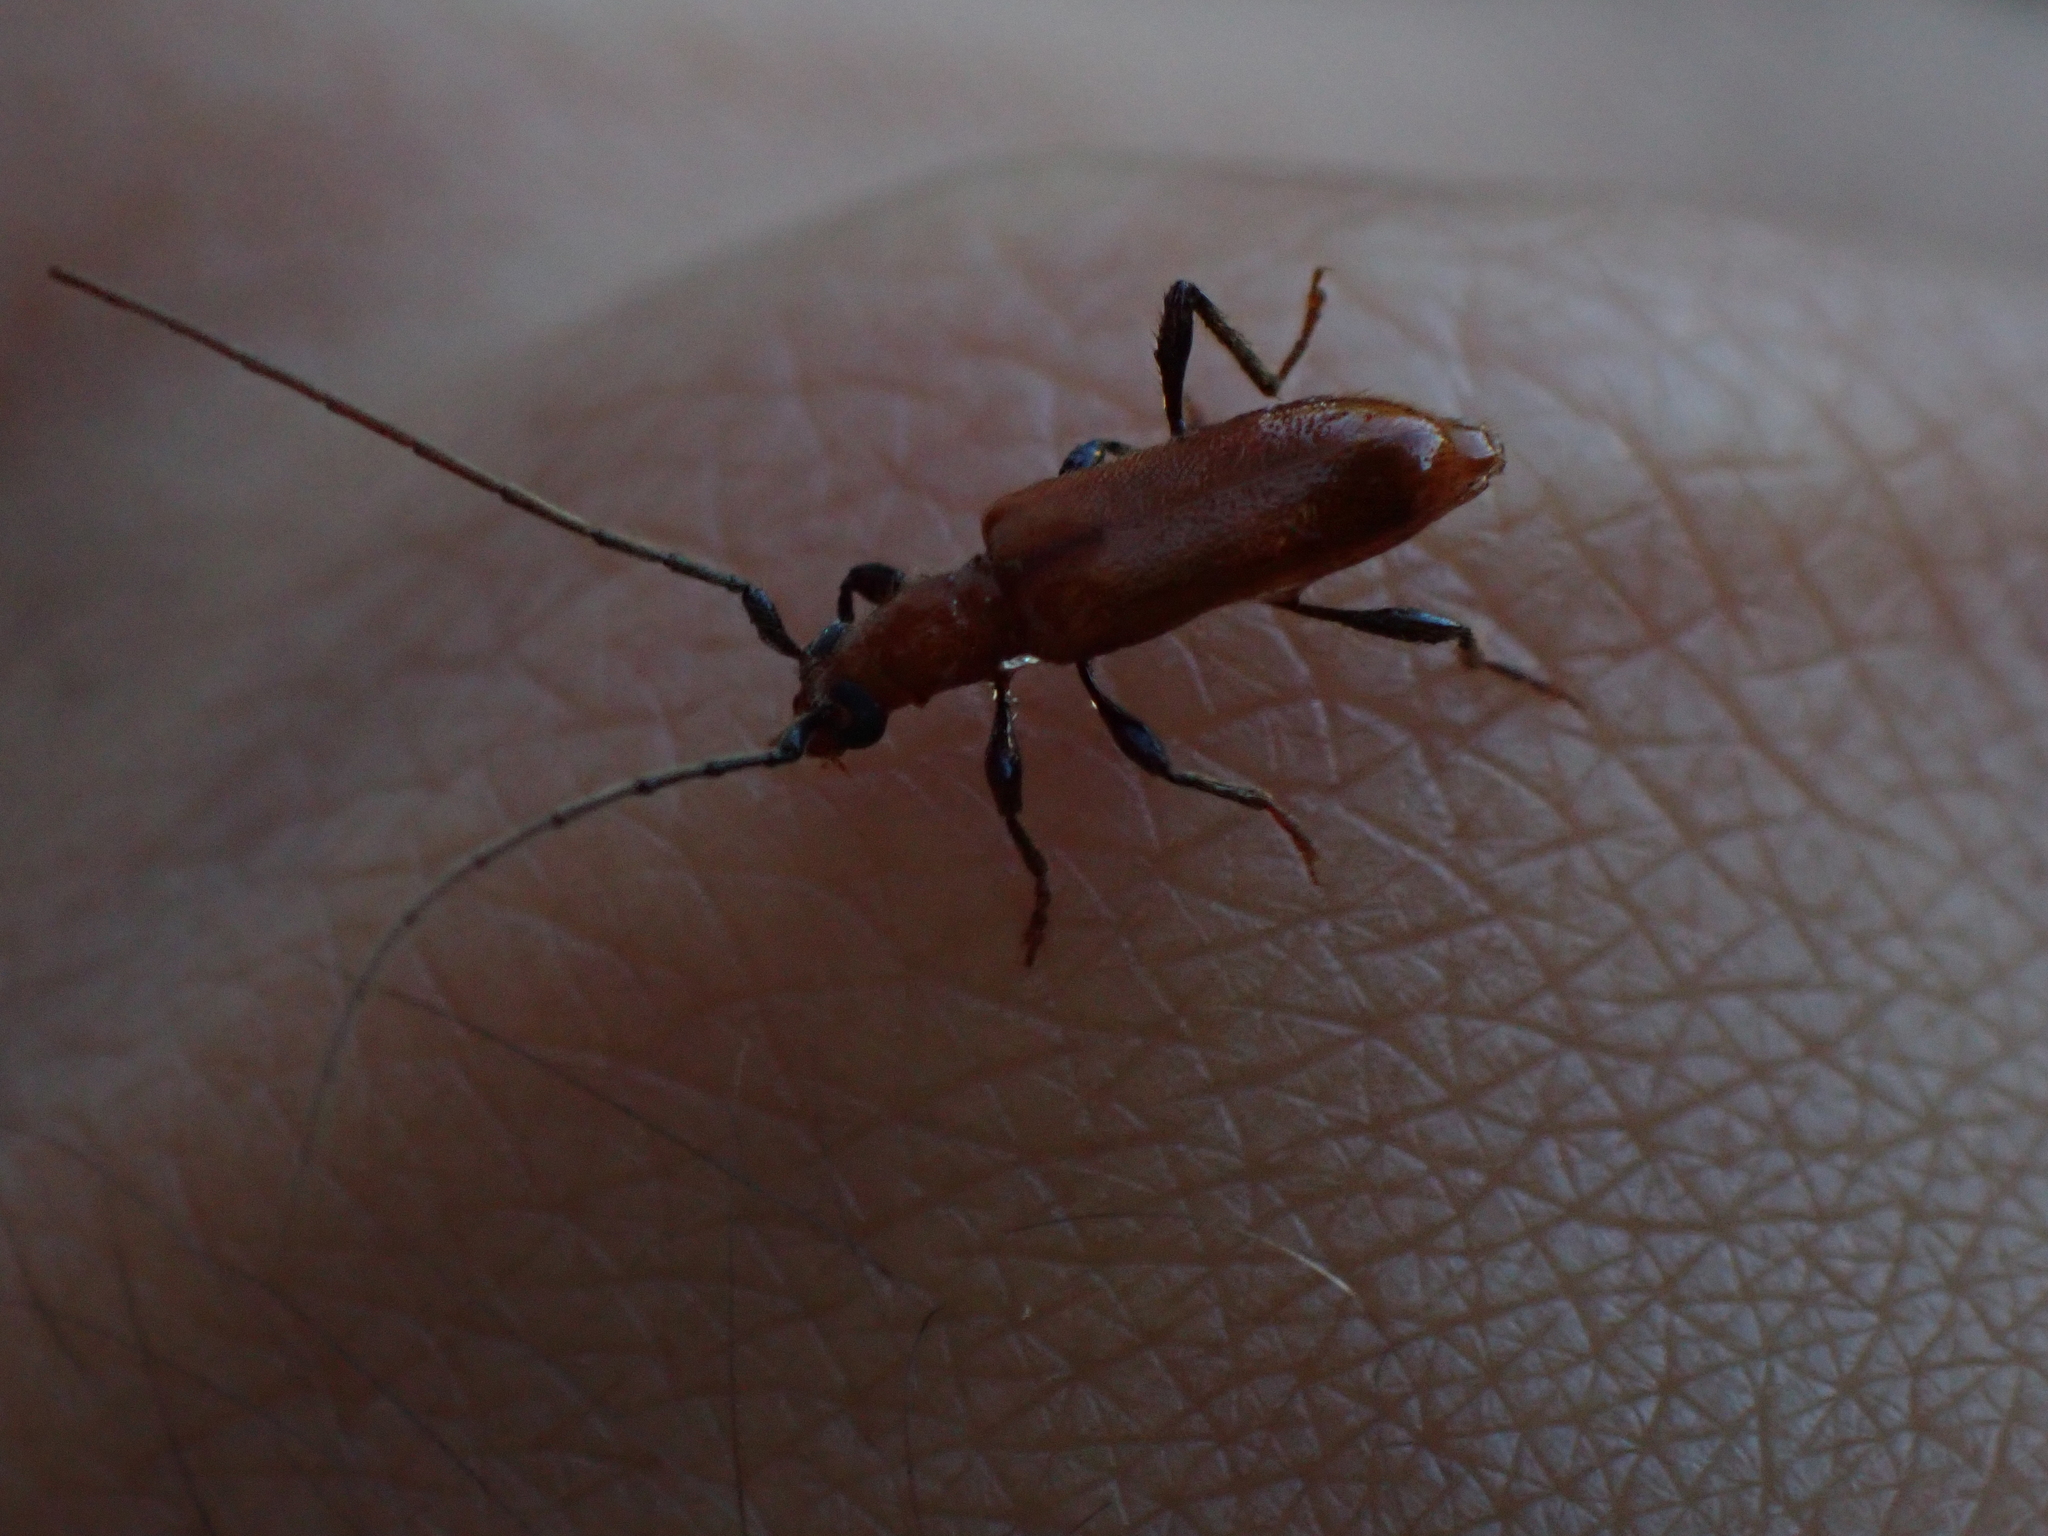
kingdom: Animalia
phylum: Arthropoda
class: Insecta
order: Coleoptera
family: Cerambycidae
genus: Obrium
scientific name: Obrium cantharinum
